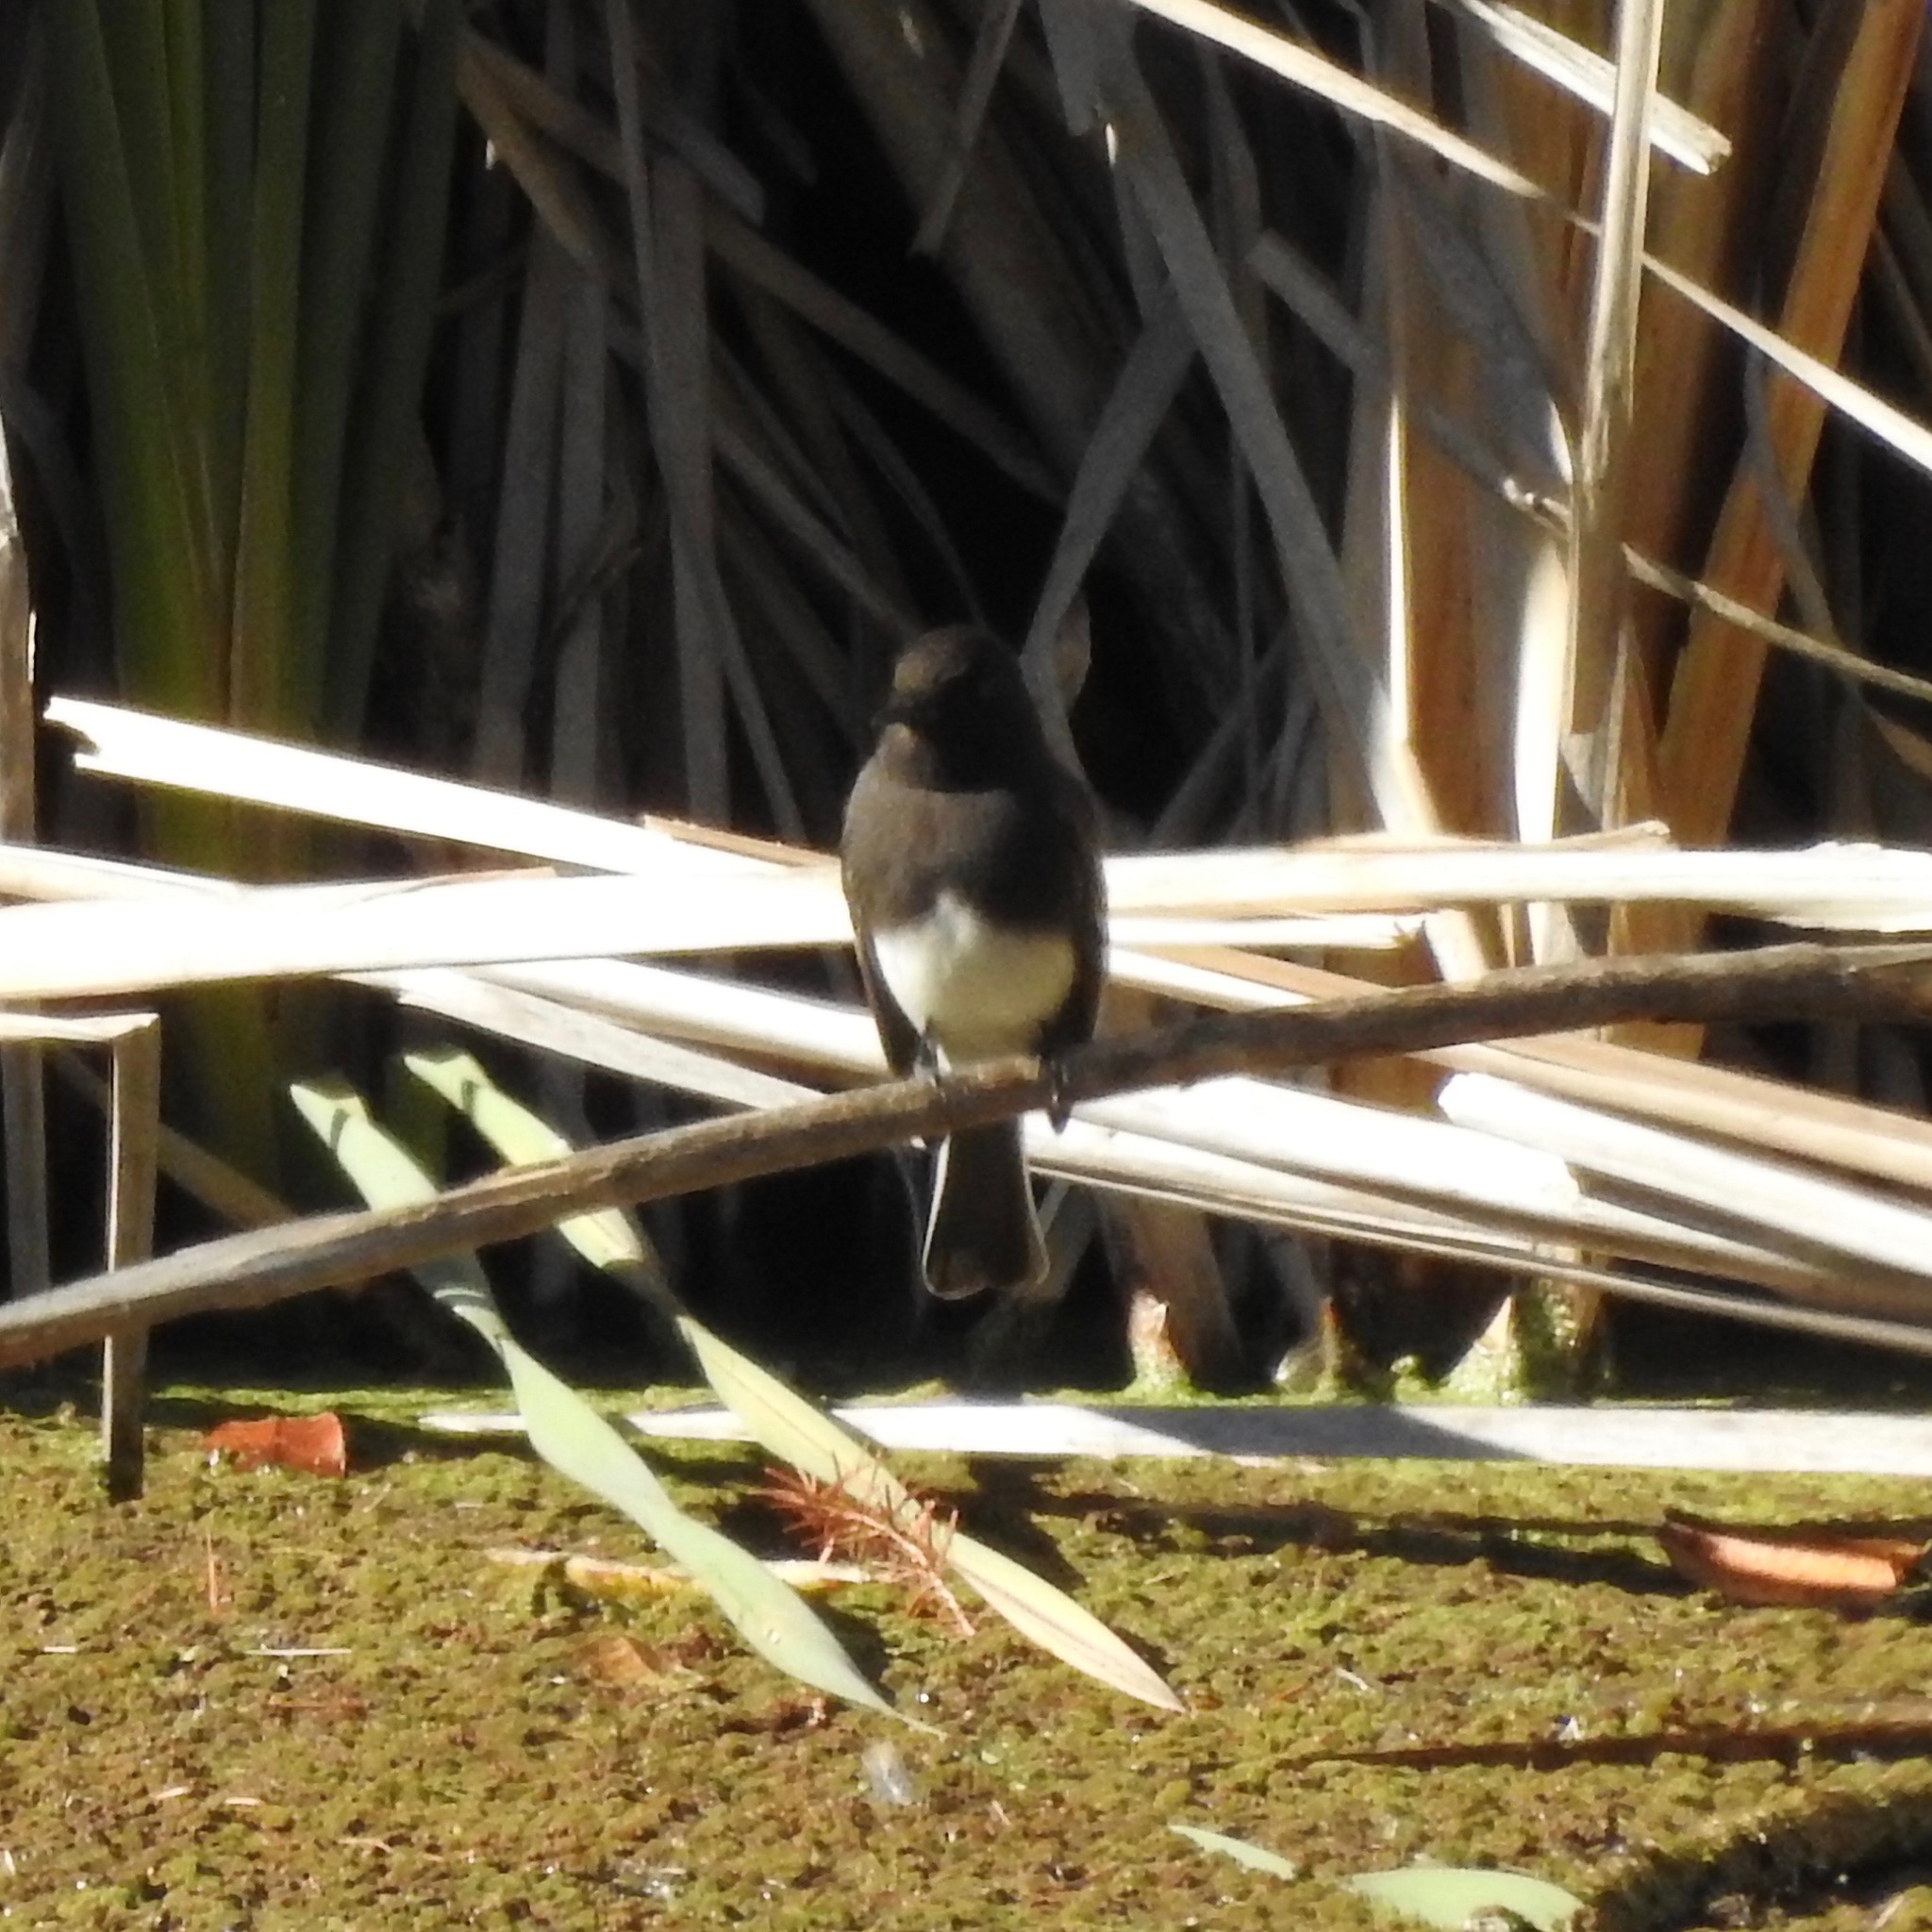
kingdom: Animalia
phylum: Chordata
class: Aves
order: Passeriformes
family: Tyrannidae
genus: Sayornis
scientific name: Sayornis nigricans
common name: Black phoebe
